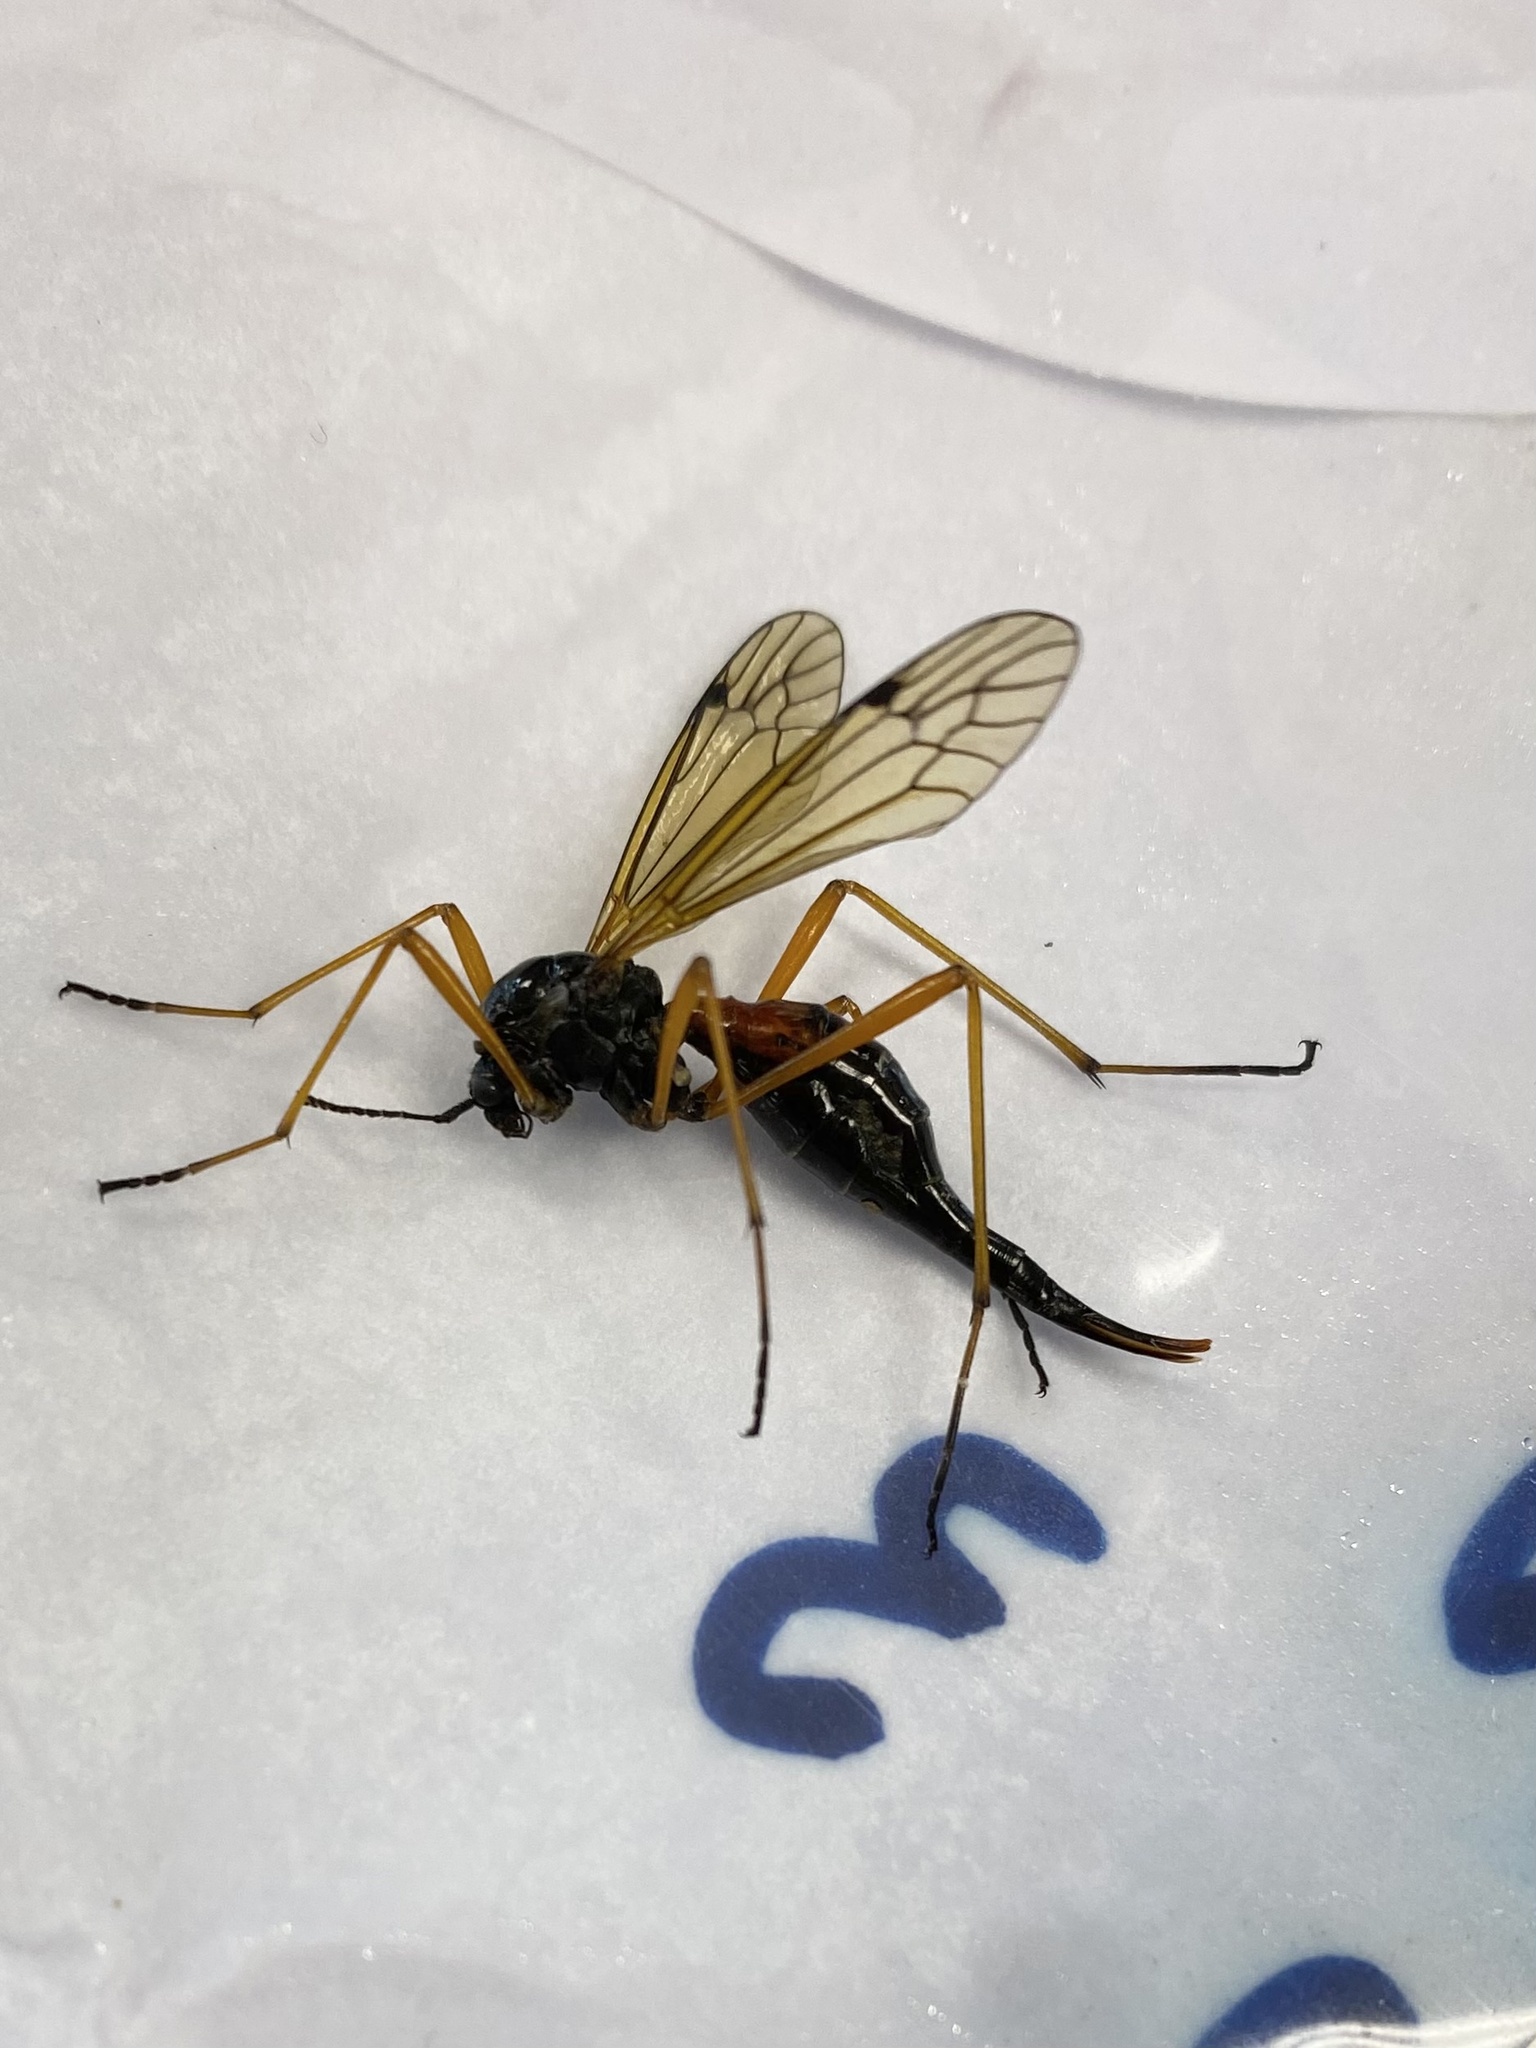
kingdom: Animalia
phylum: Arthropoda
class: Insecta
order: Diptera
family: Tipulidae
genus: Tanyptera
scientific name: Tanyptera dorsalis
